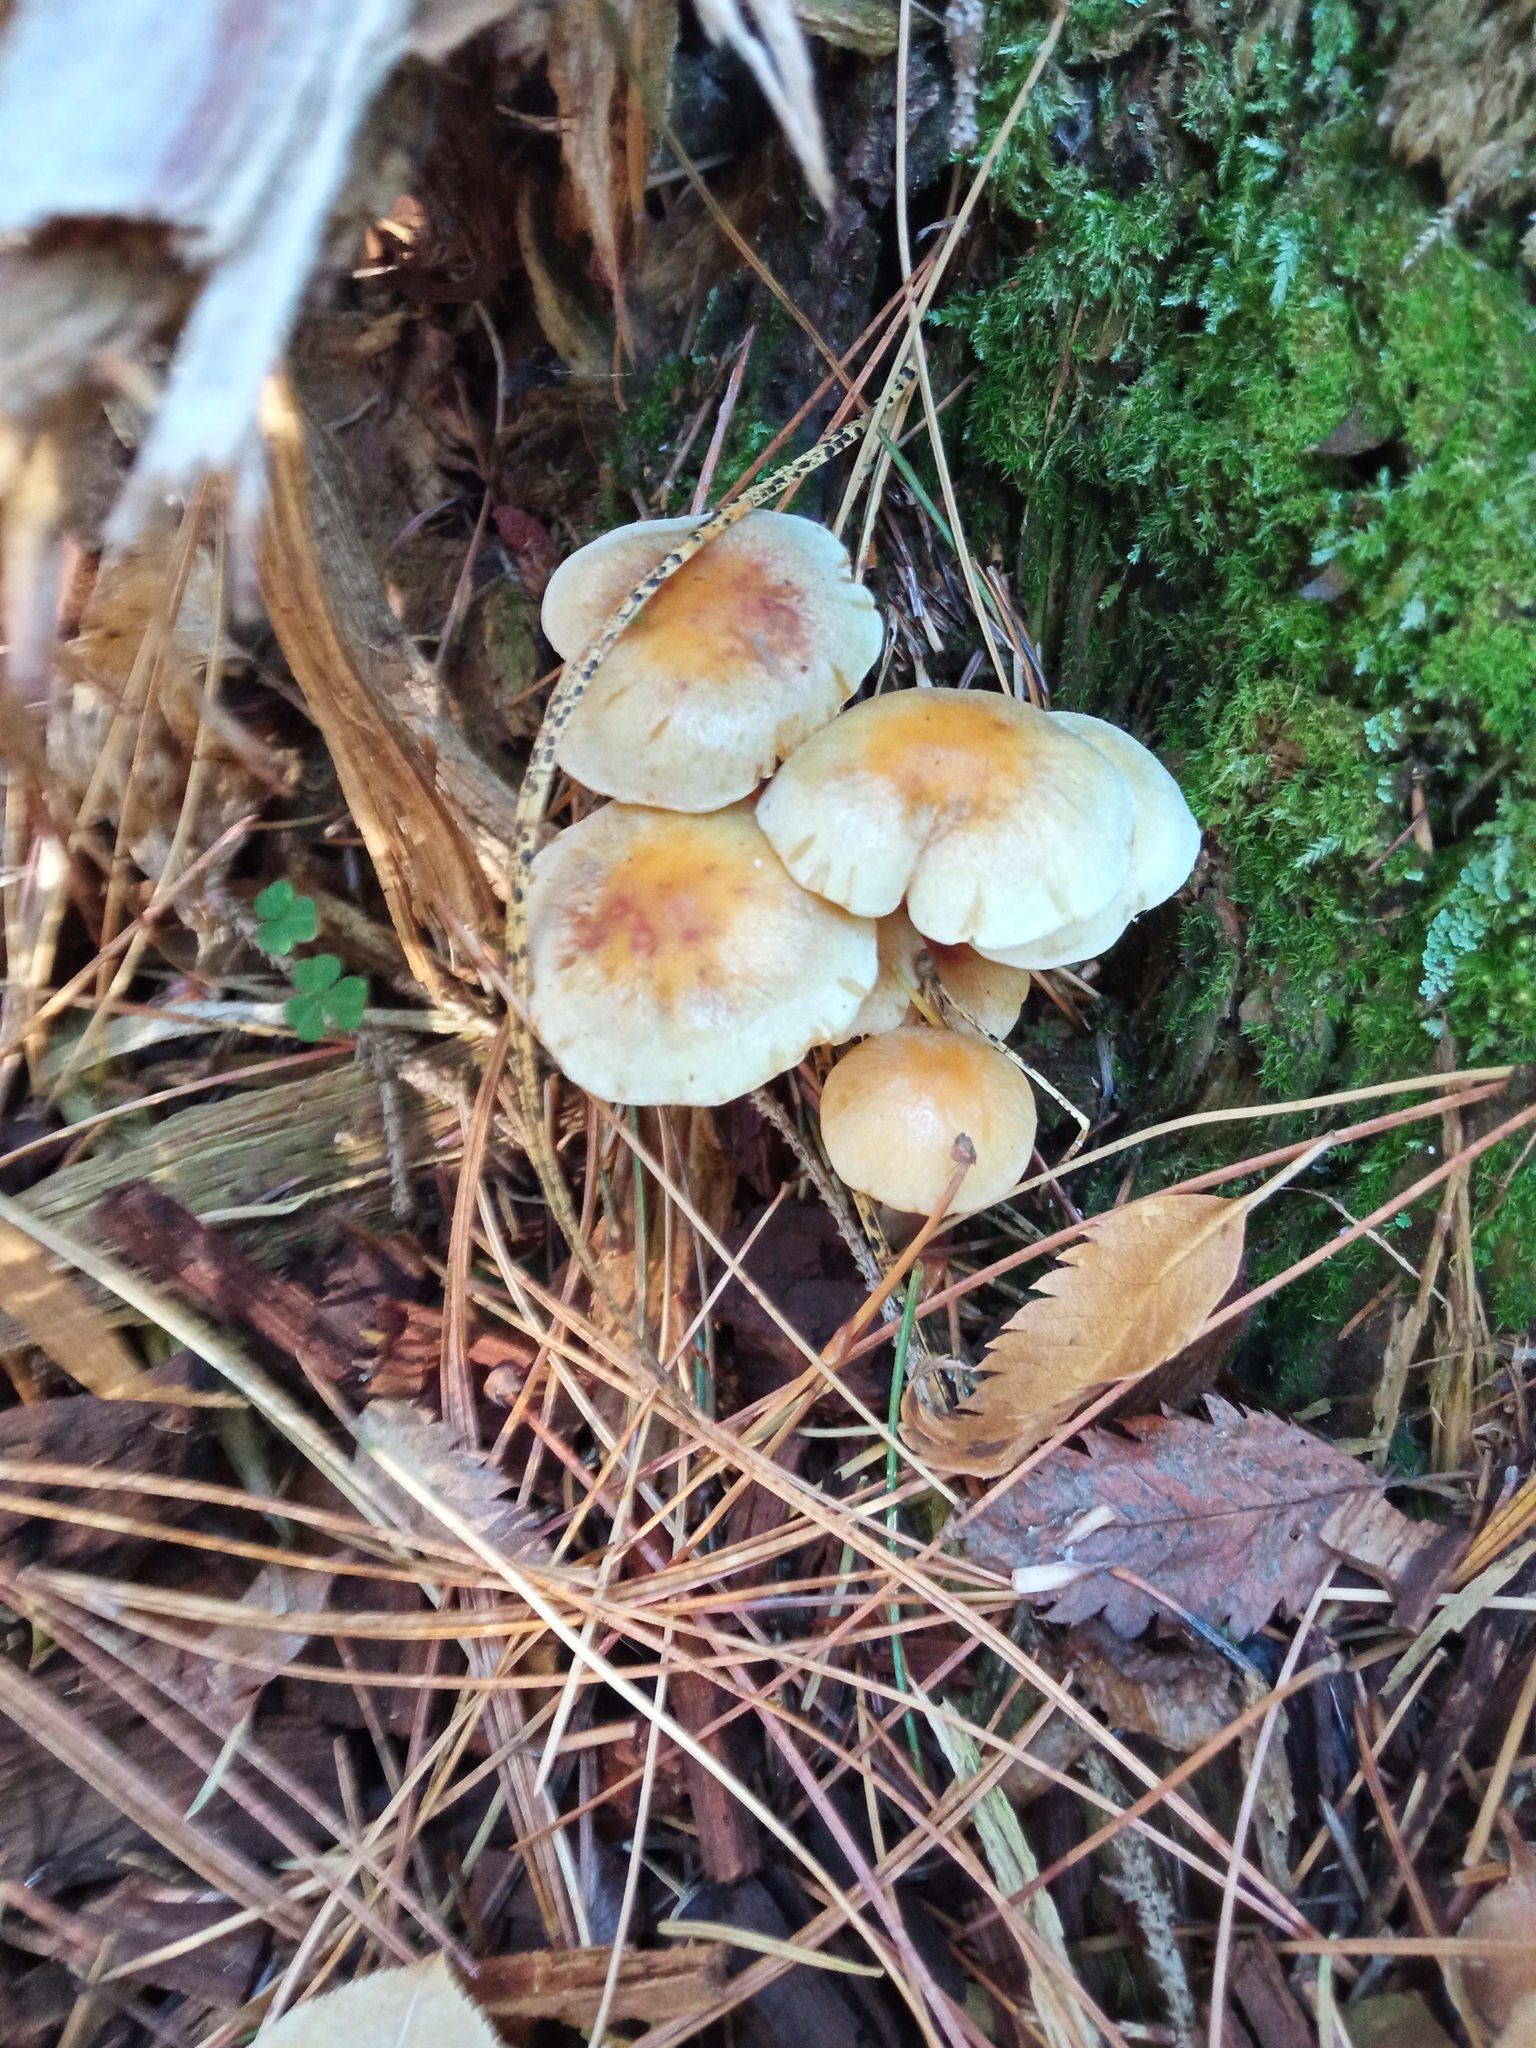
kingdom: Fungi
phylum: Basidiomycota
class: Agaricomycetes
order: Agaricales
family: Strophariaceae
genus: Hypholoma
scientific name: Hypholoma capnoides
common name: Conifer tuft
